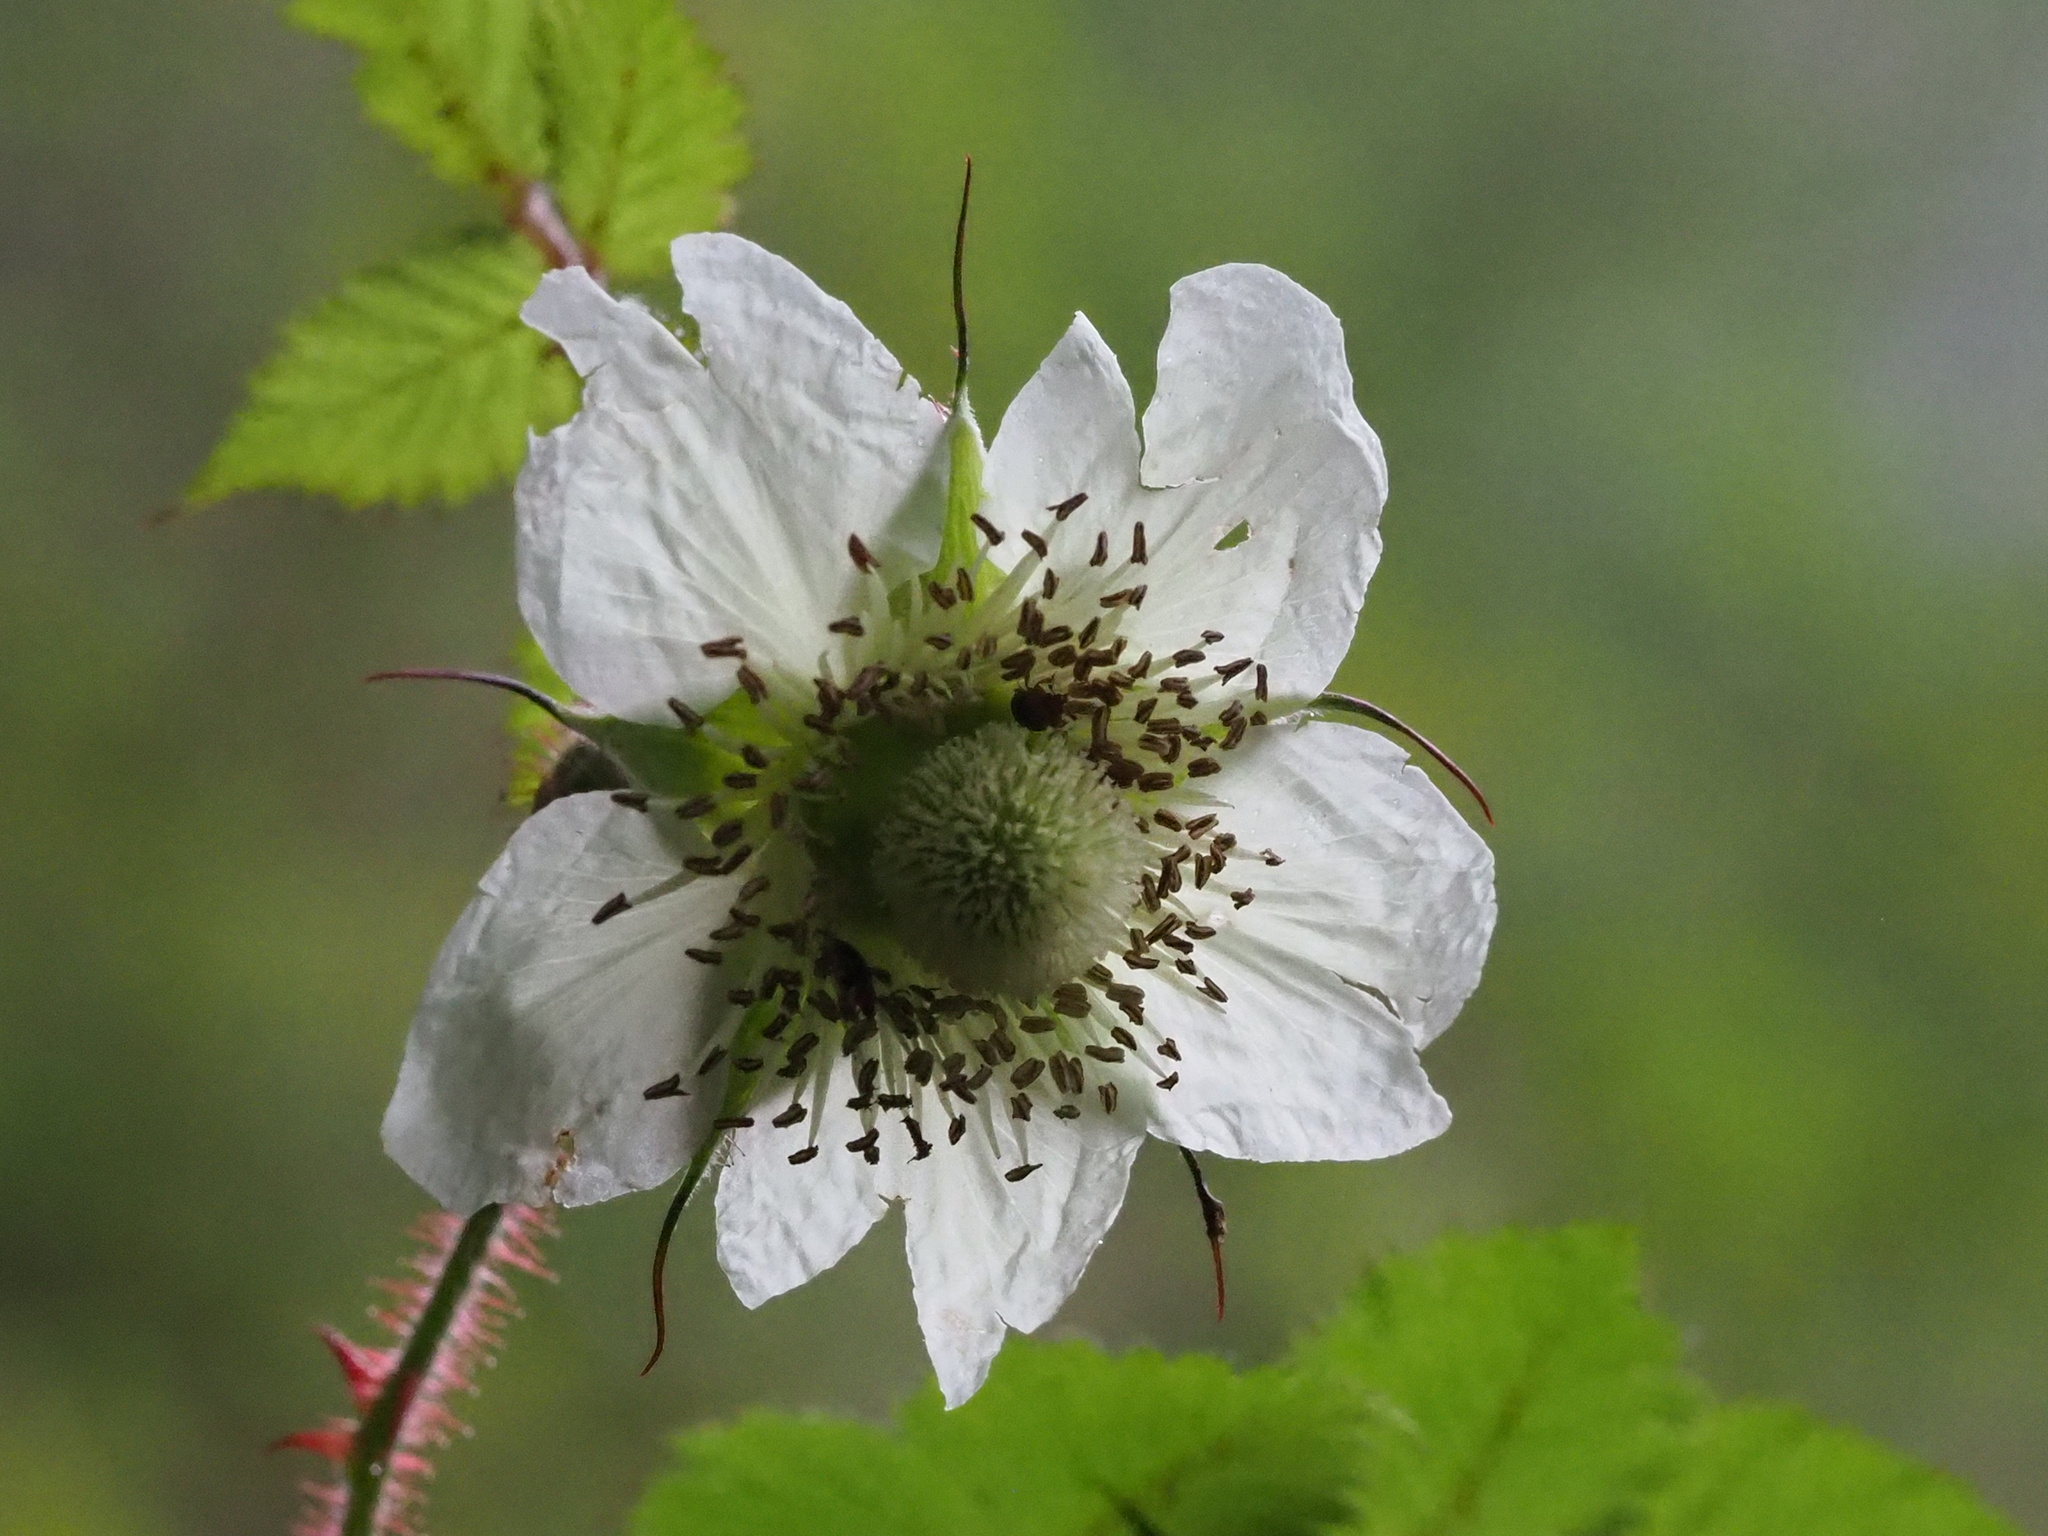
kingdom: Plantae
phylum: Tracheophyta
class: Magnoliopsida
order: Rosales
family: Rosaceae
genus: Rubus
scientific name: Rubus croceacanthus
